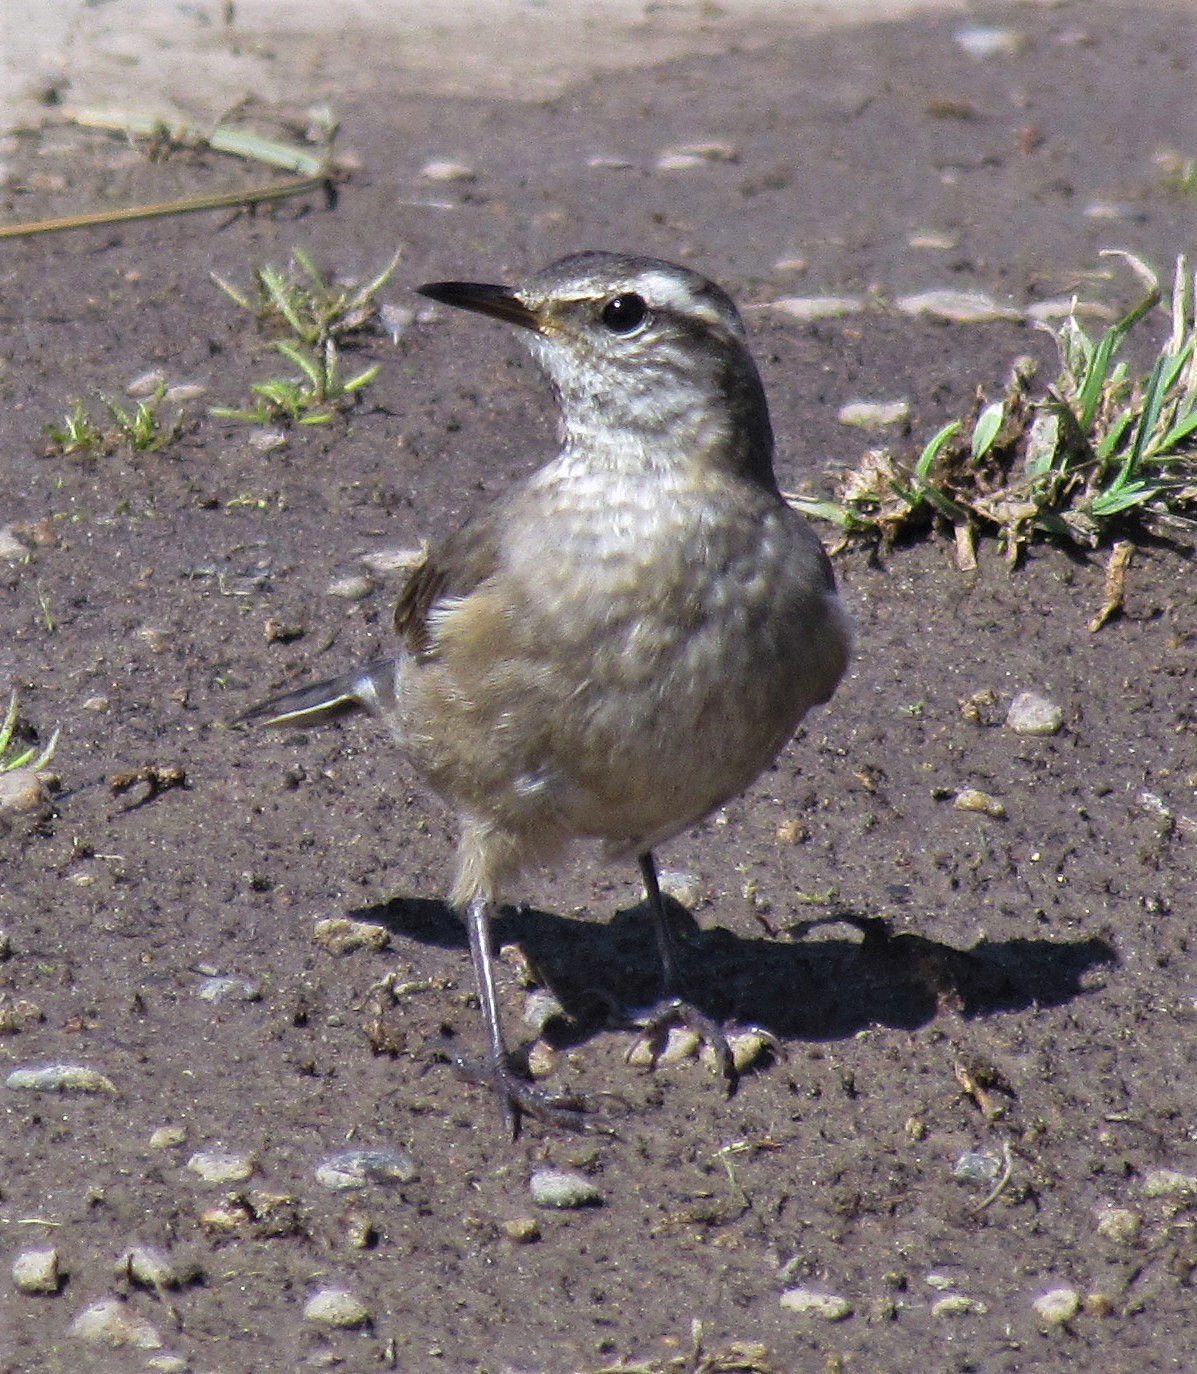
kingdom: Animalia
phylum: Chordata
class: Aves
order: Passeriformes
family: Furnariidae
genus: Cinclodes
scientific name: Cinclodes fuscus
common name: Buff-winged cinclodes
